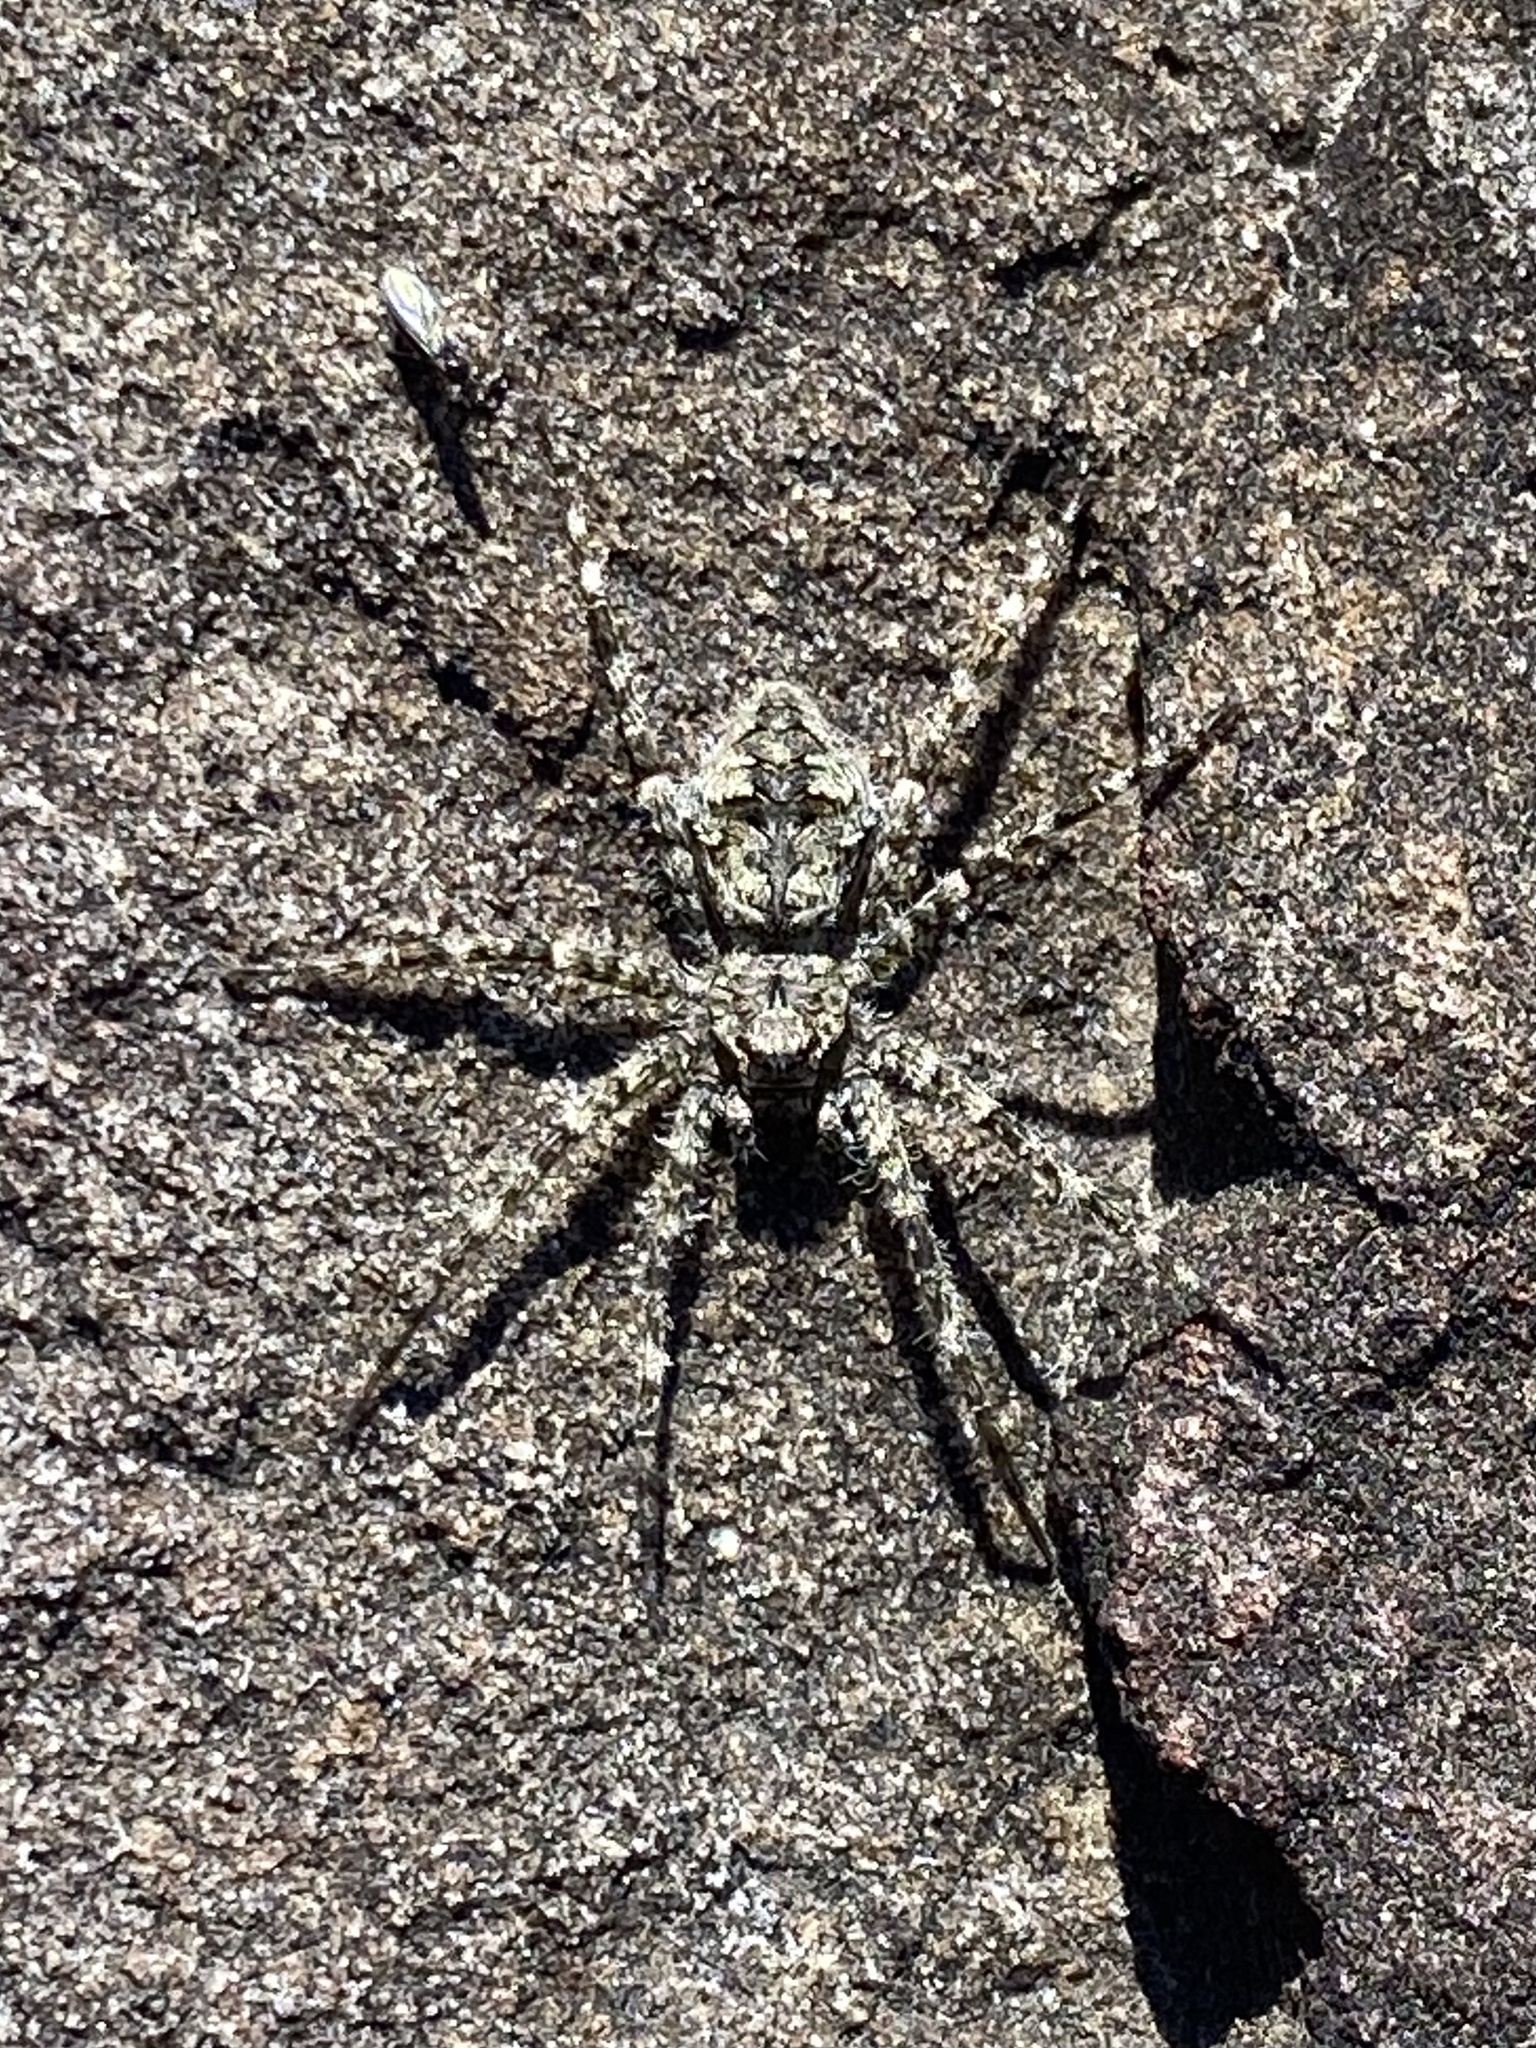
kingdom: Animalia
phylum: Arthropoda
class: Arachnida
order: Araneae
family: Pisauridae
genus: Dolomedes
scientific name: Dolomedes albineus
